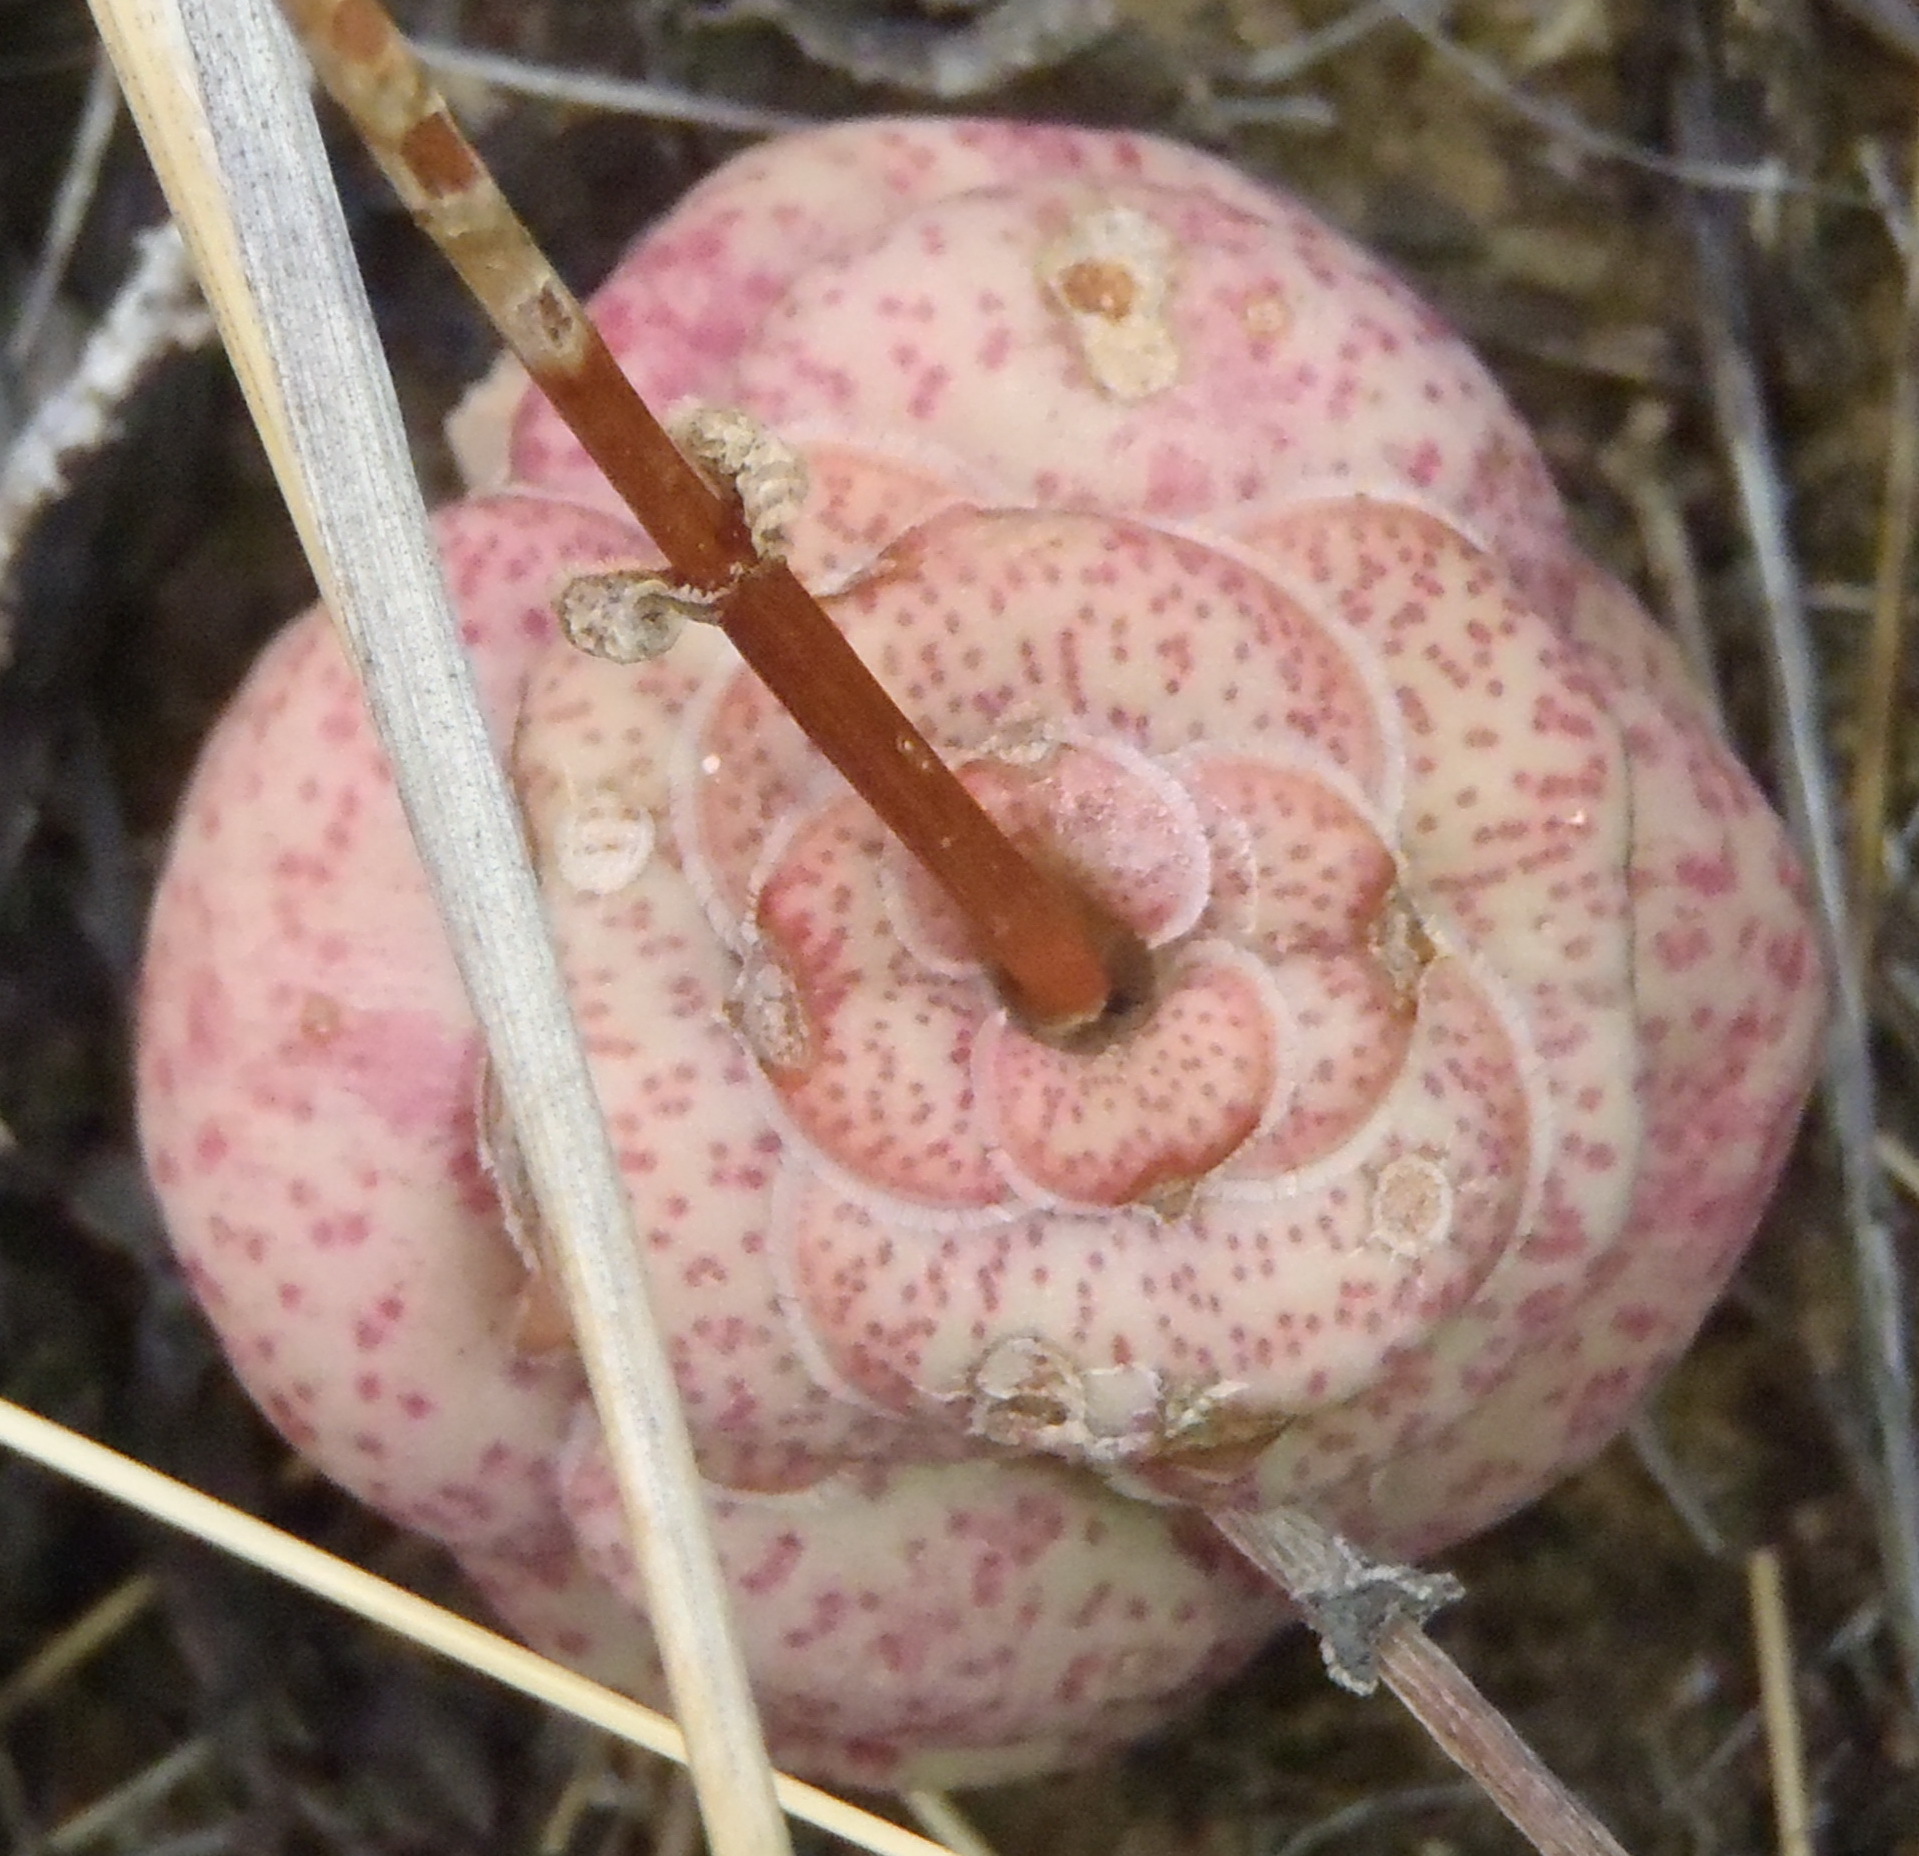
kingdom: Plantae
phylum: Tracheophyta
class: Magnoliopsida
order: Saxifragales
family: Crassulaceae
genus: Crassula
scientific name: Crassula hemisphaerica
